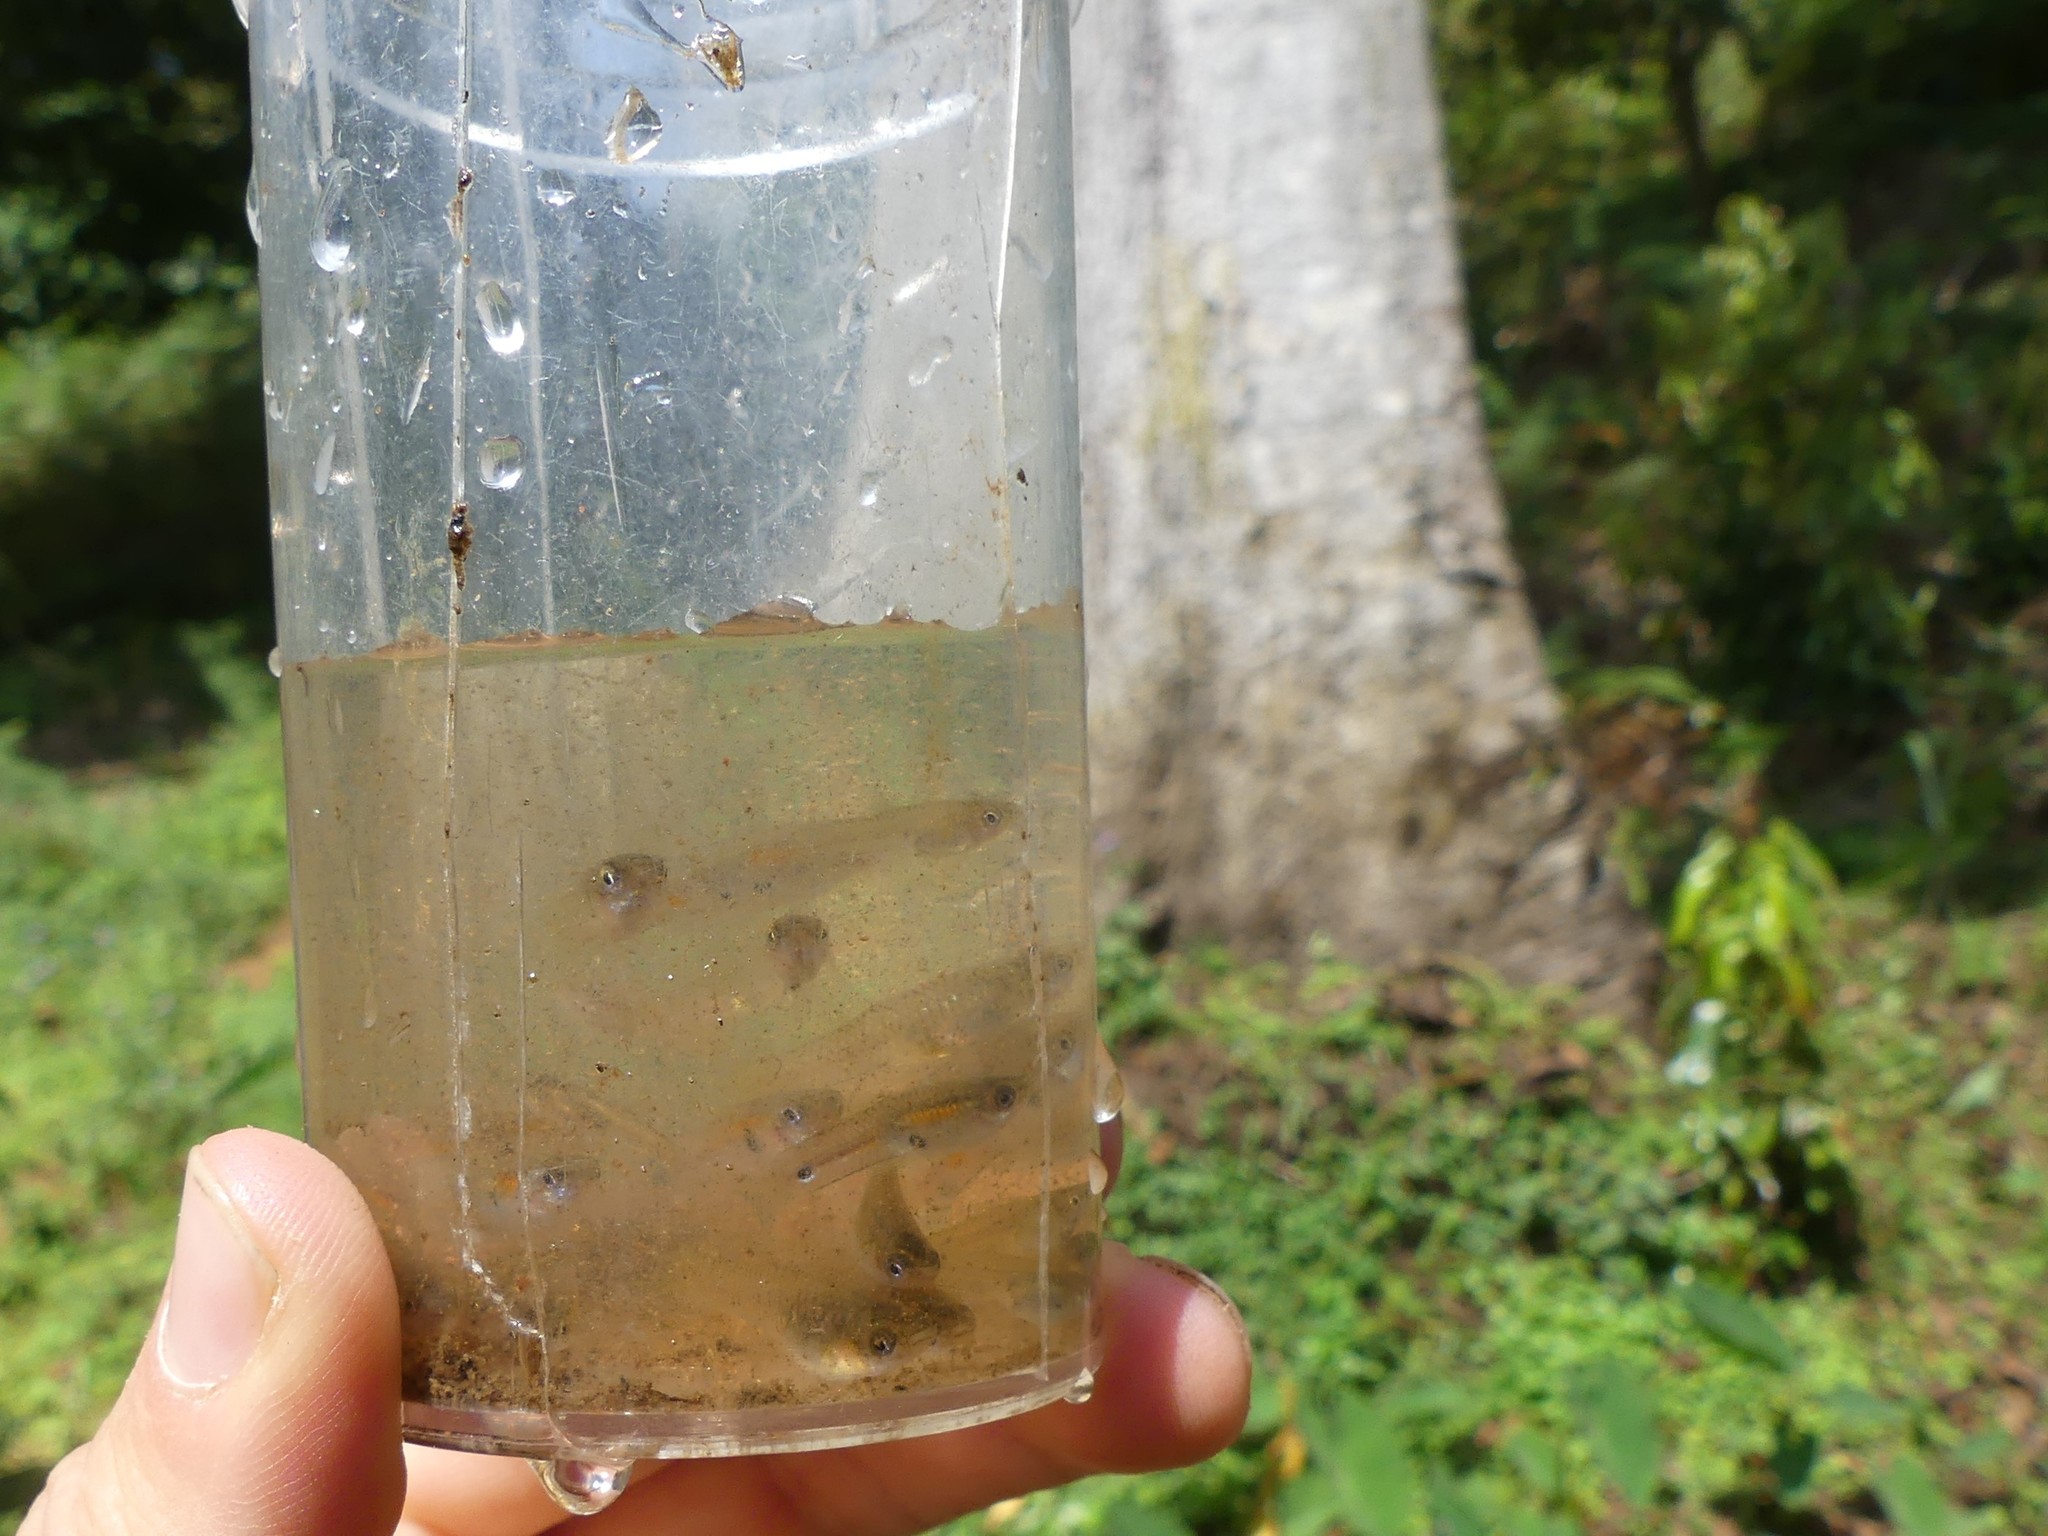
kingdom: Animalia
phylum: Chordata
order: Cyprinodontiformes
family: Poeciliidae
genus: Poecilia
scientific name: Poecilia reticulata
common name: Guppy
